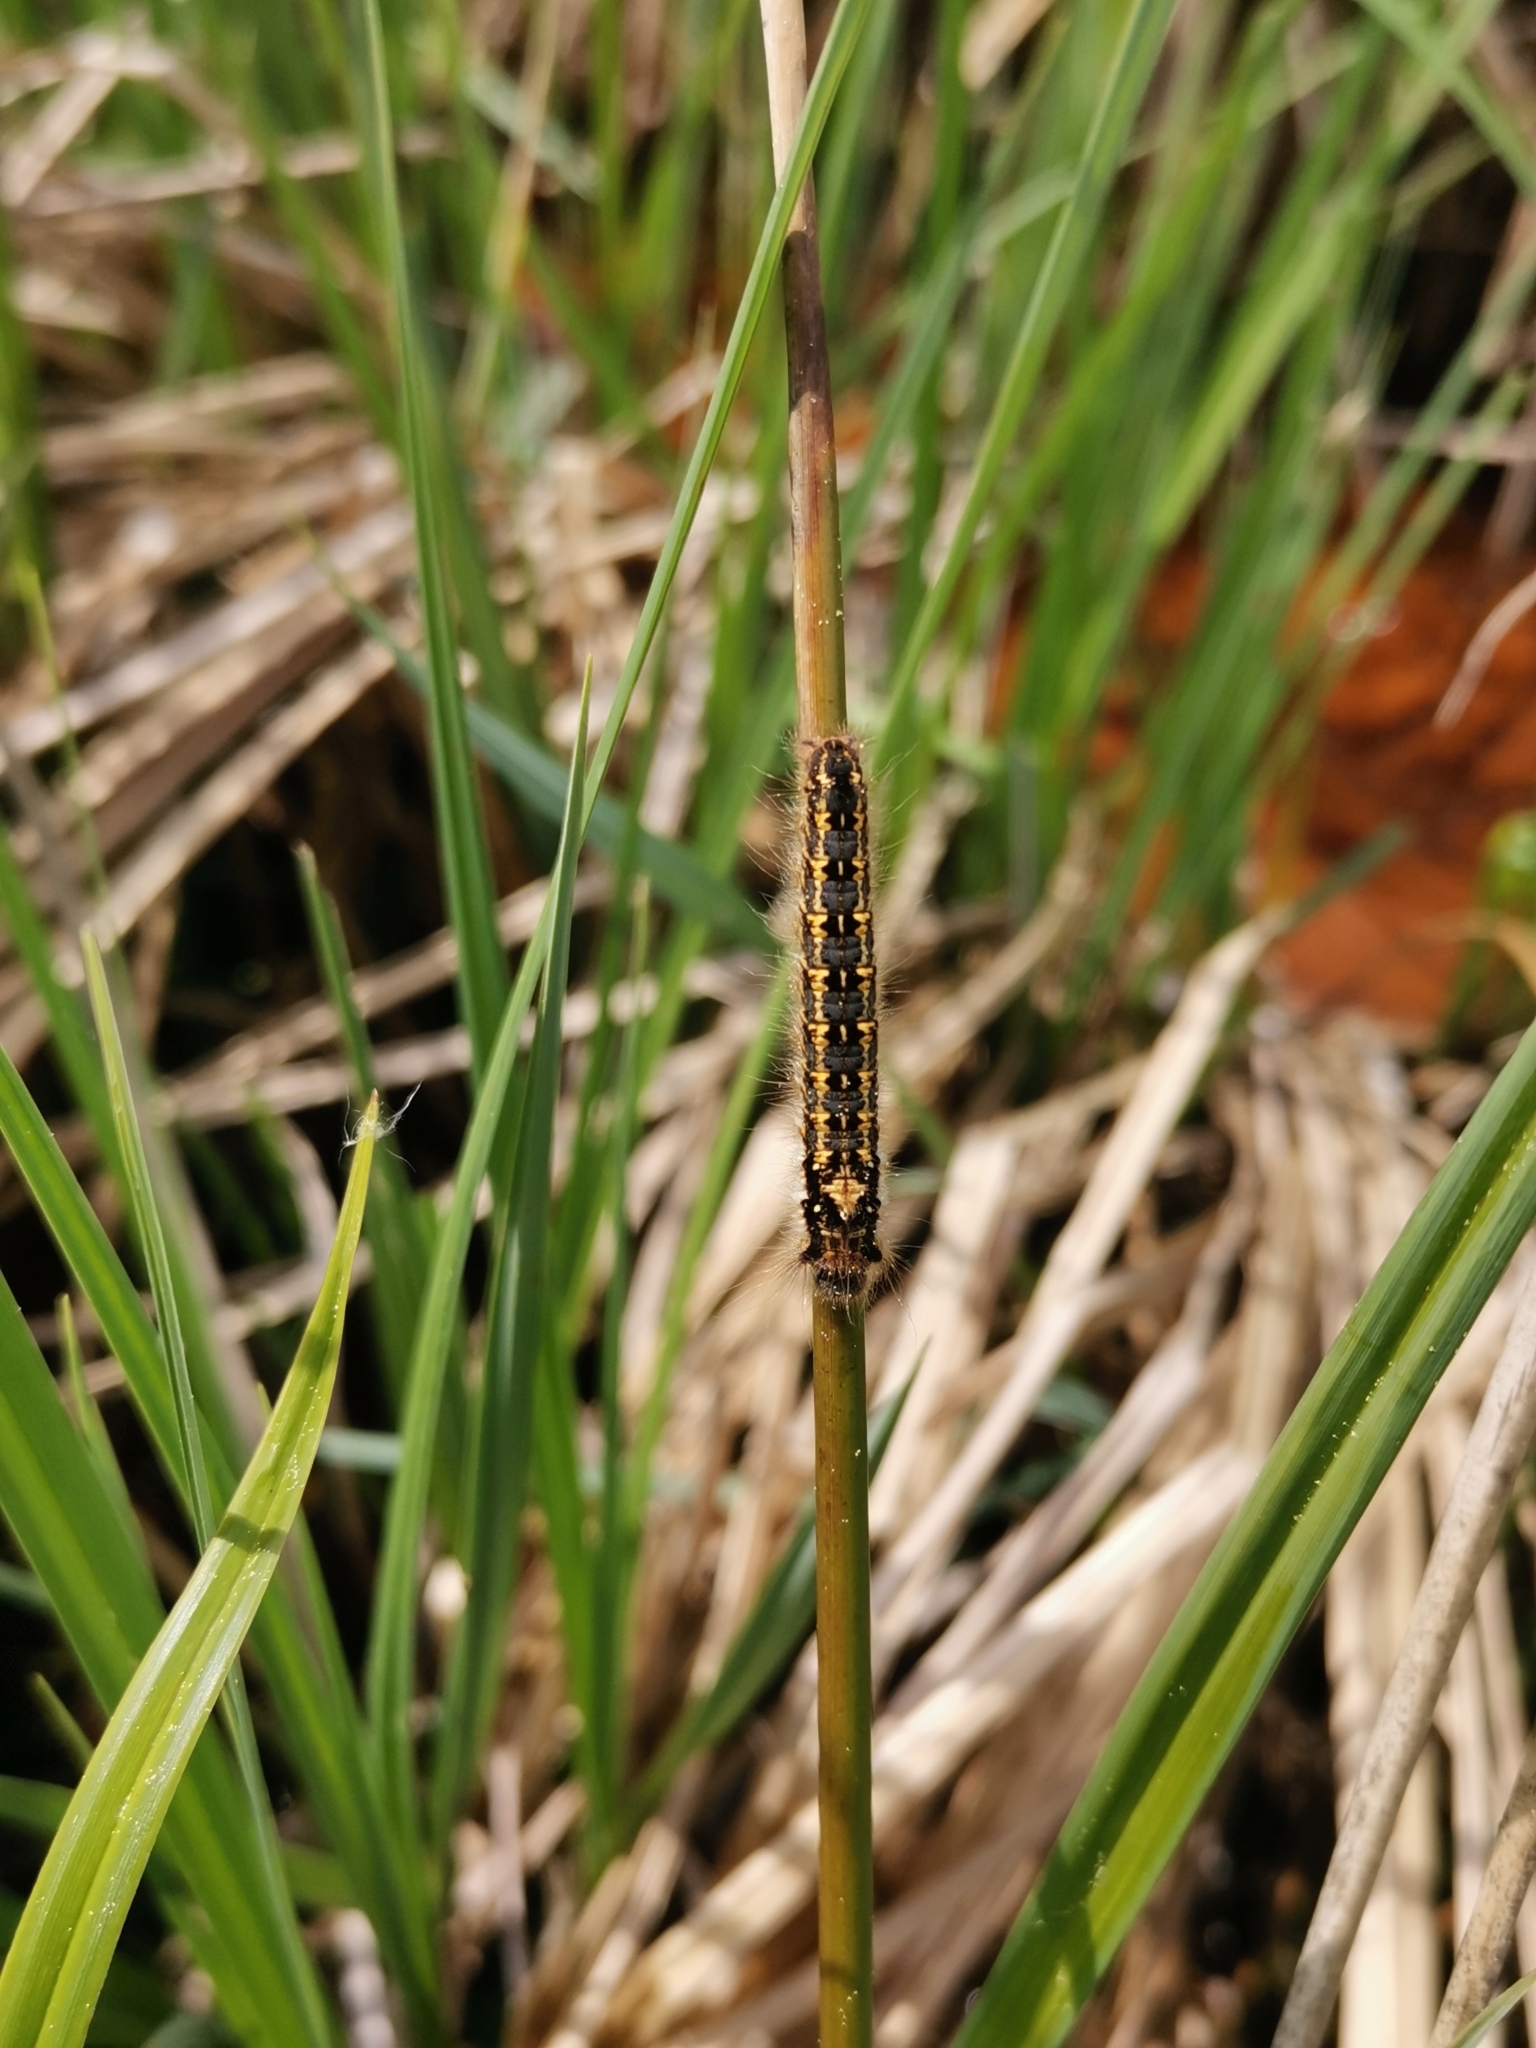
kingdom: Animalia
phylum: Arthropoda
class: Insecta
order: Lepidoptera
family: Lasiocampidae
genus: Euthrix
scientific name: Euthrix potatoria
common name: Drinker
